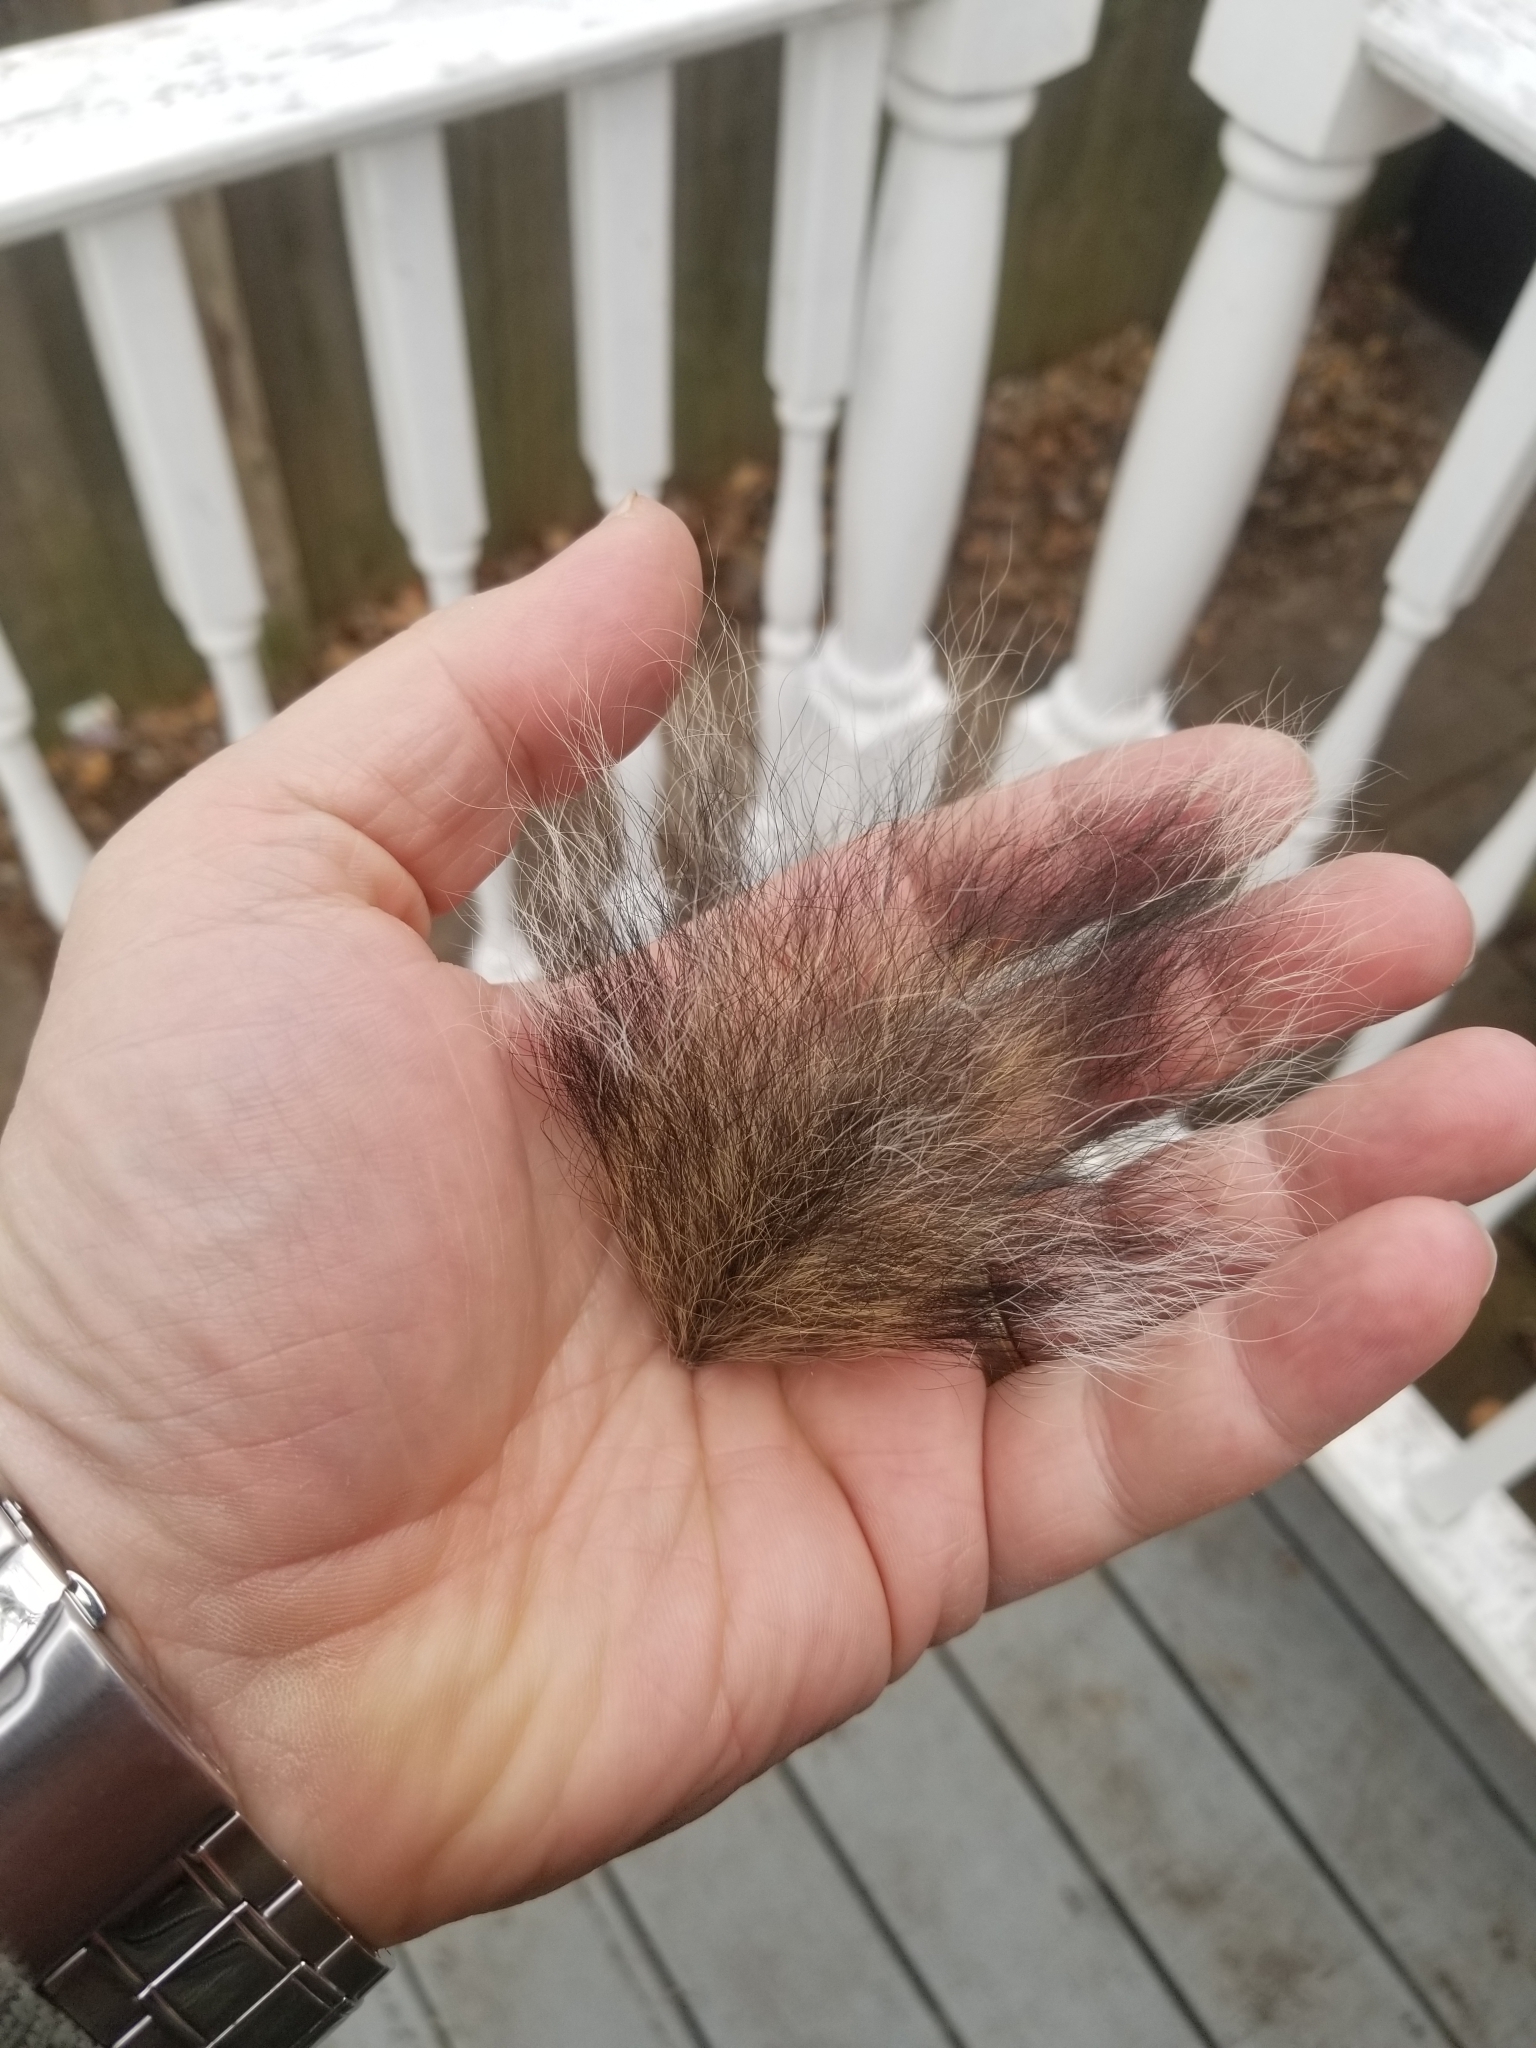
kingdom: Animalia
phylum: Chordata
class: Mammalia
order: Rodentia
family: Sciuridae
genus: Sciurus
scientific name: Sciurus carolinensis
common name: Eastern gray squirrel
